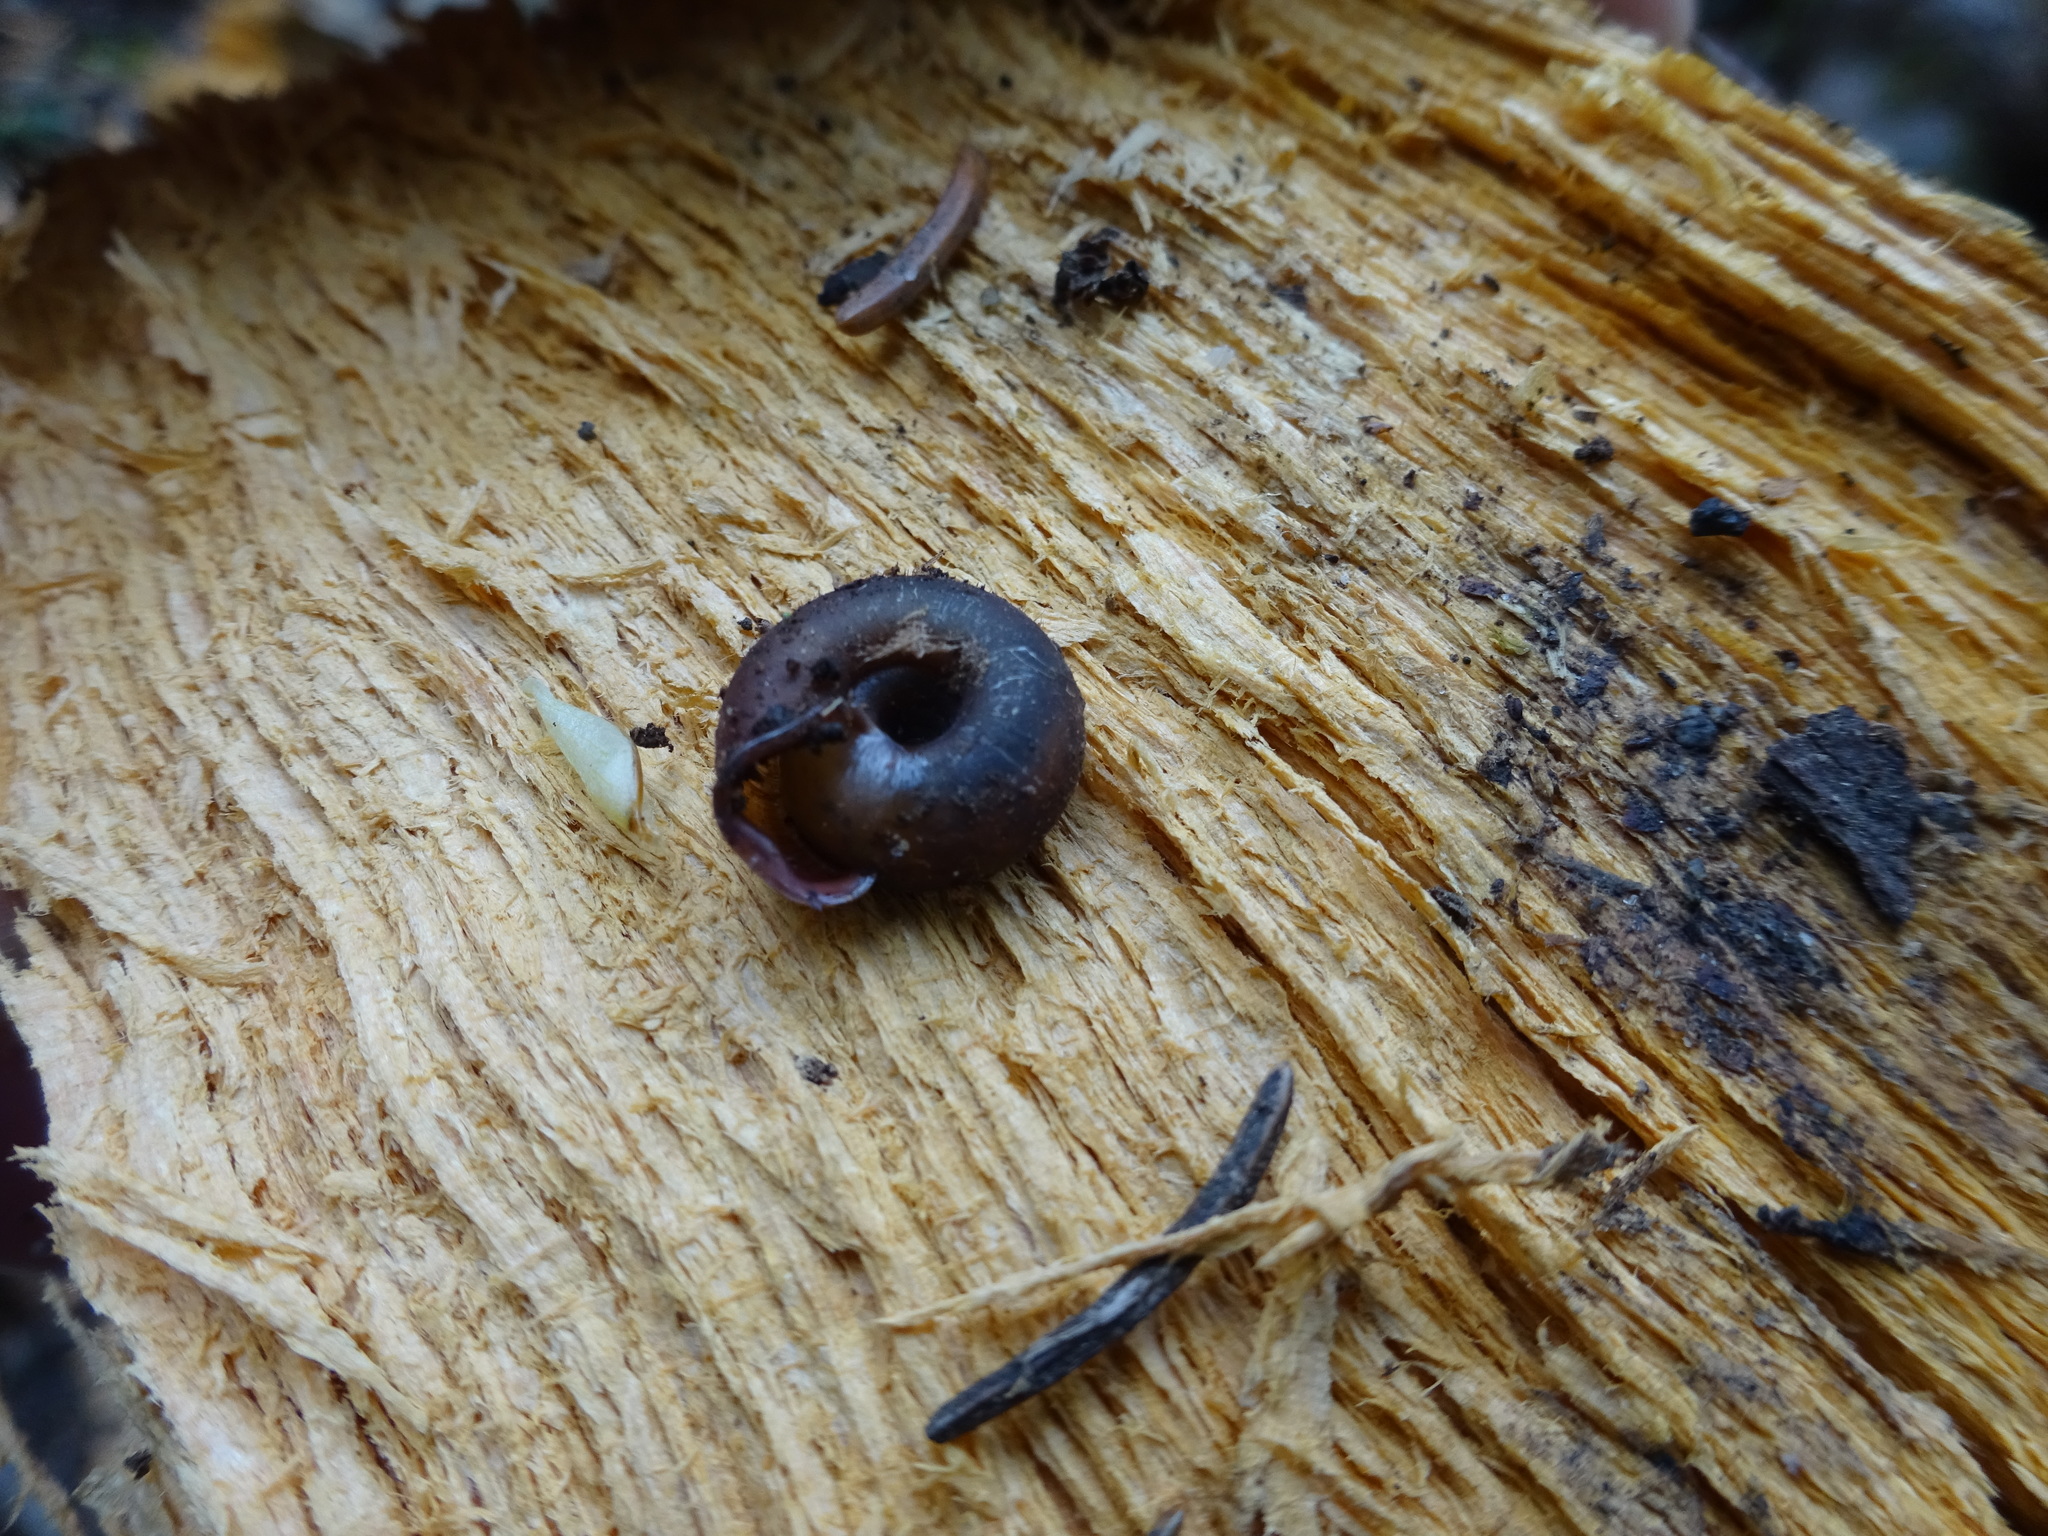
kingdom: Animalia
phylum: Mollusca
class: Gastropoda
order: Stylommatophora
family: Helicodontidae
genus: Helicodonta
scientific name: Helicodonta obvoluta
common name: Cheese snail
